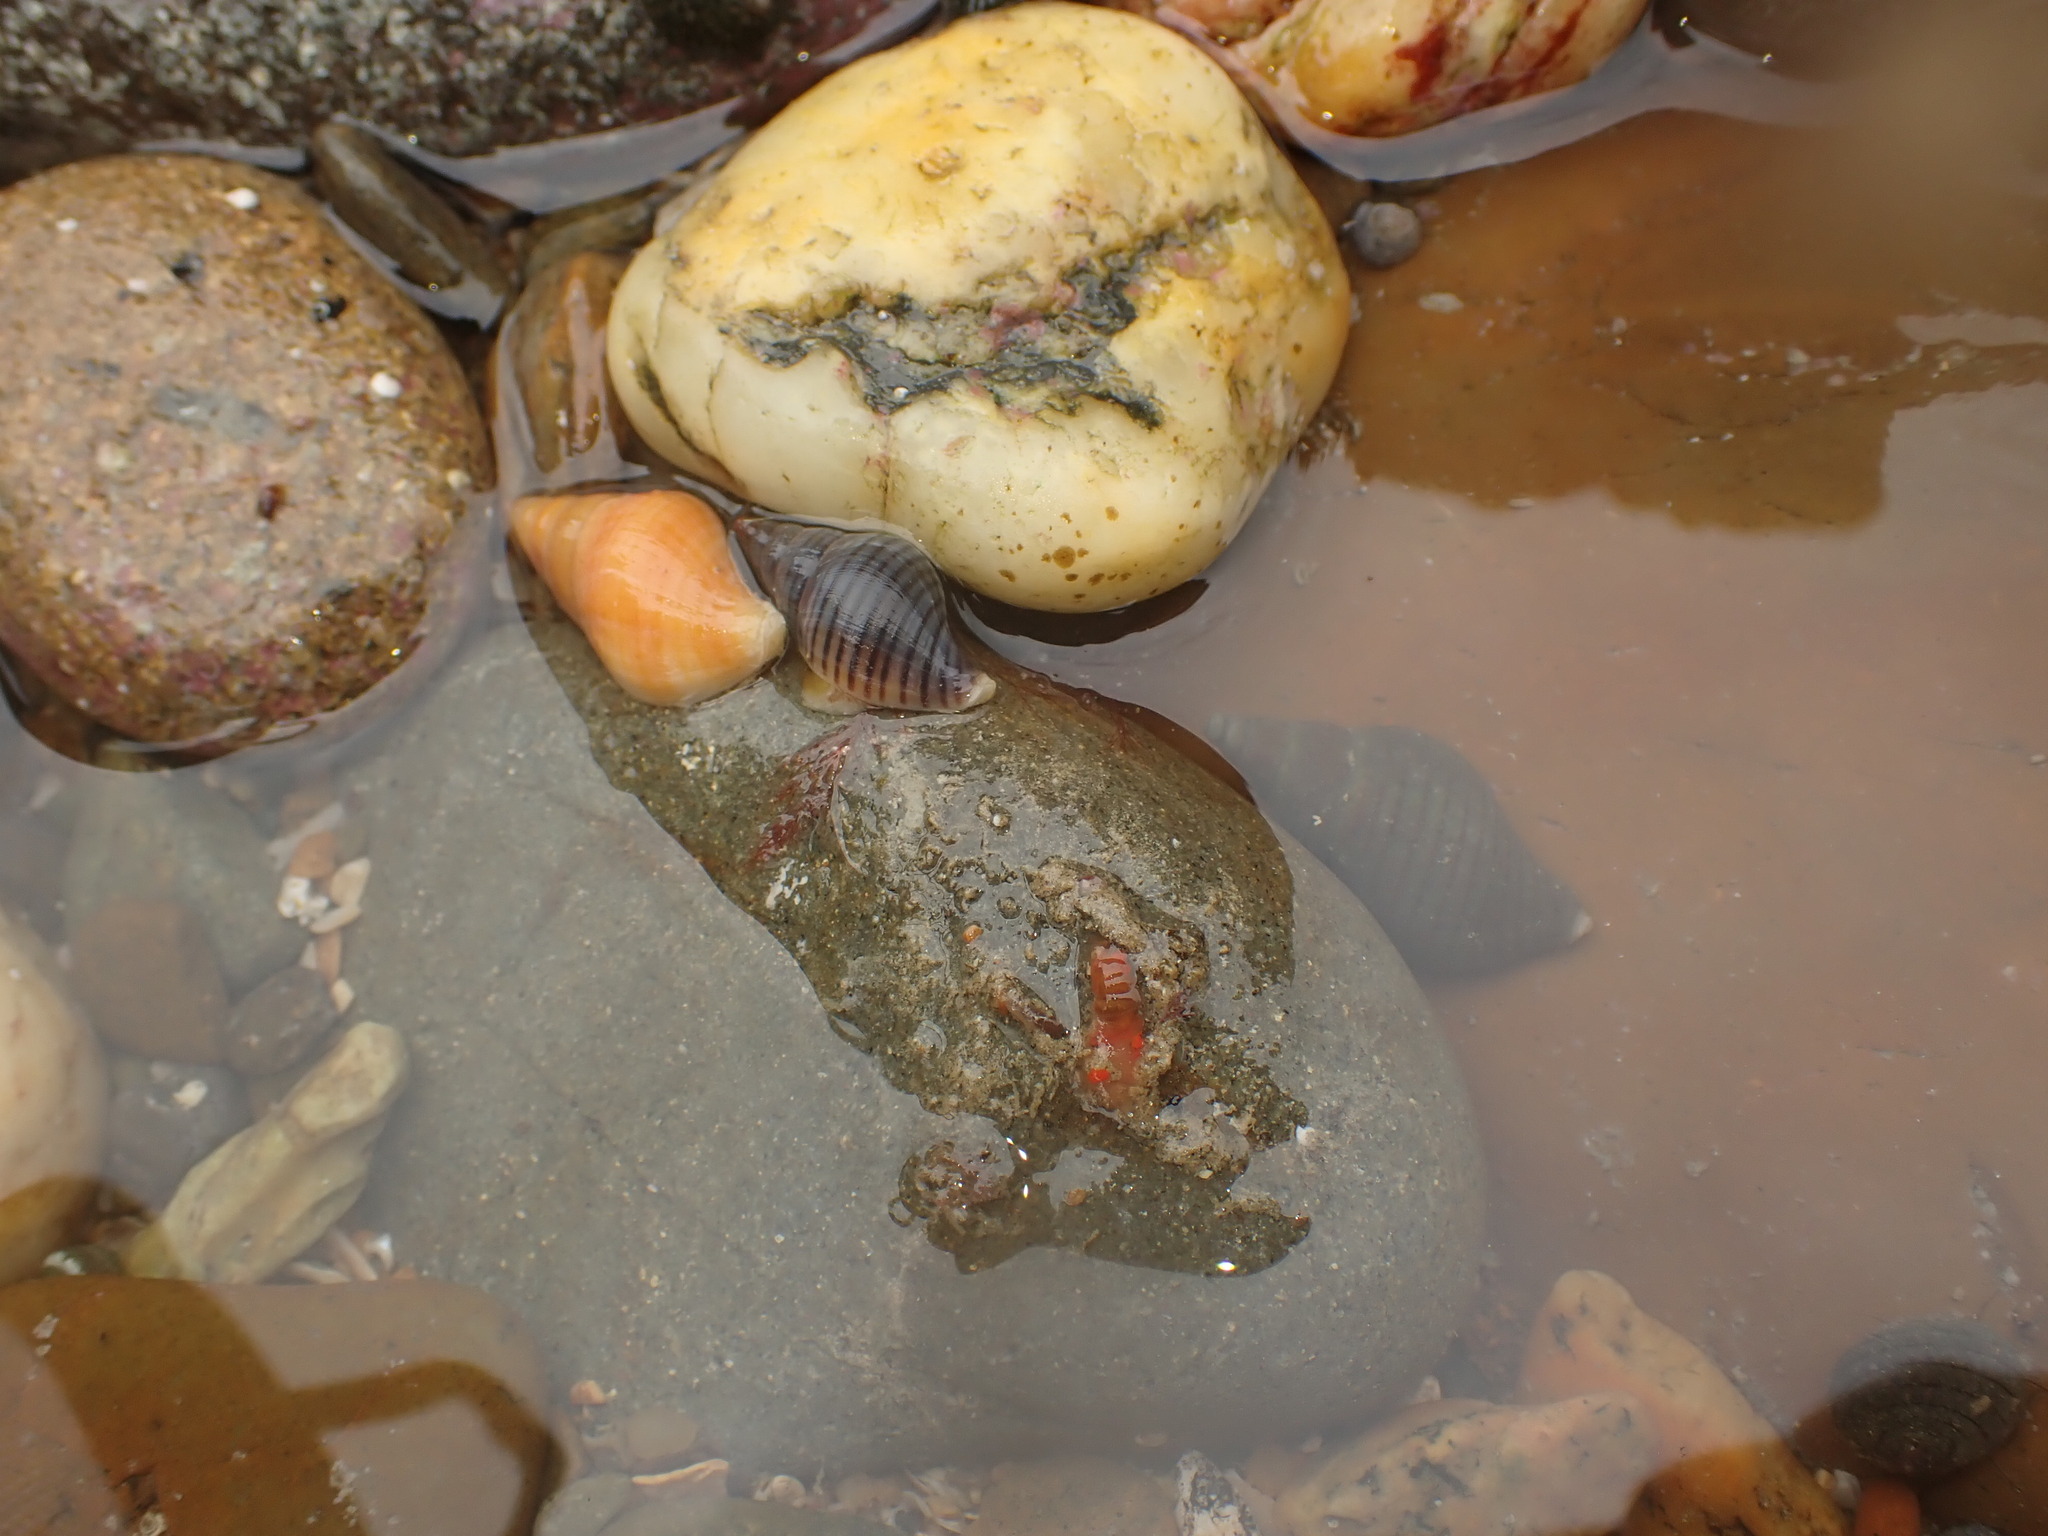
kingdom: Animalia
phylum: Mollusca
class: Gastropoda
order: Neogastropoda
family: Tudiclidae
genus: Buccinulum
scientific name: Buccinulum littorinoides
